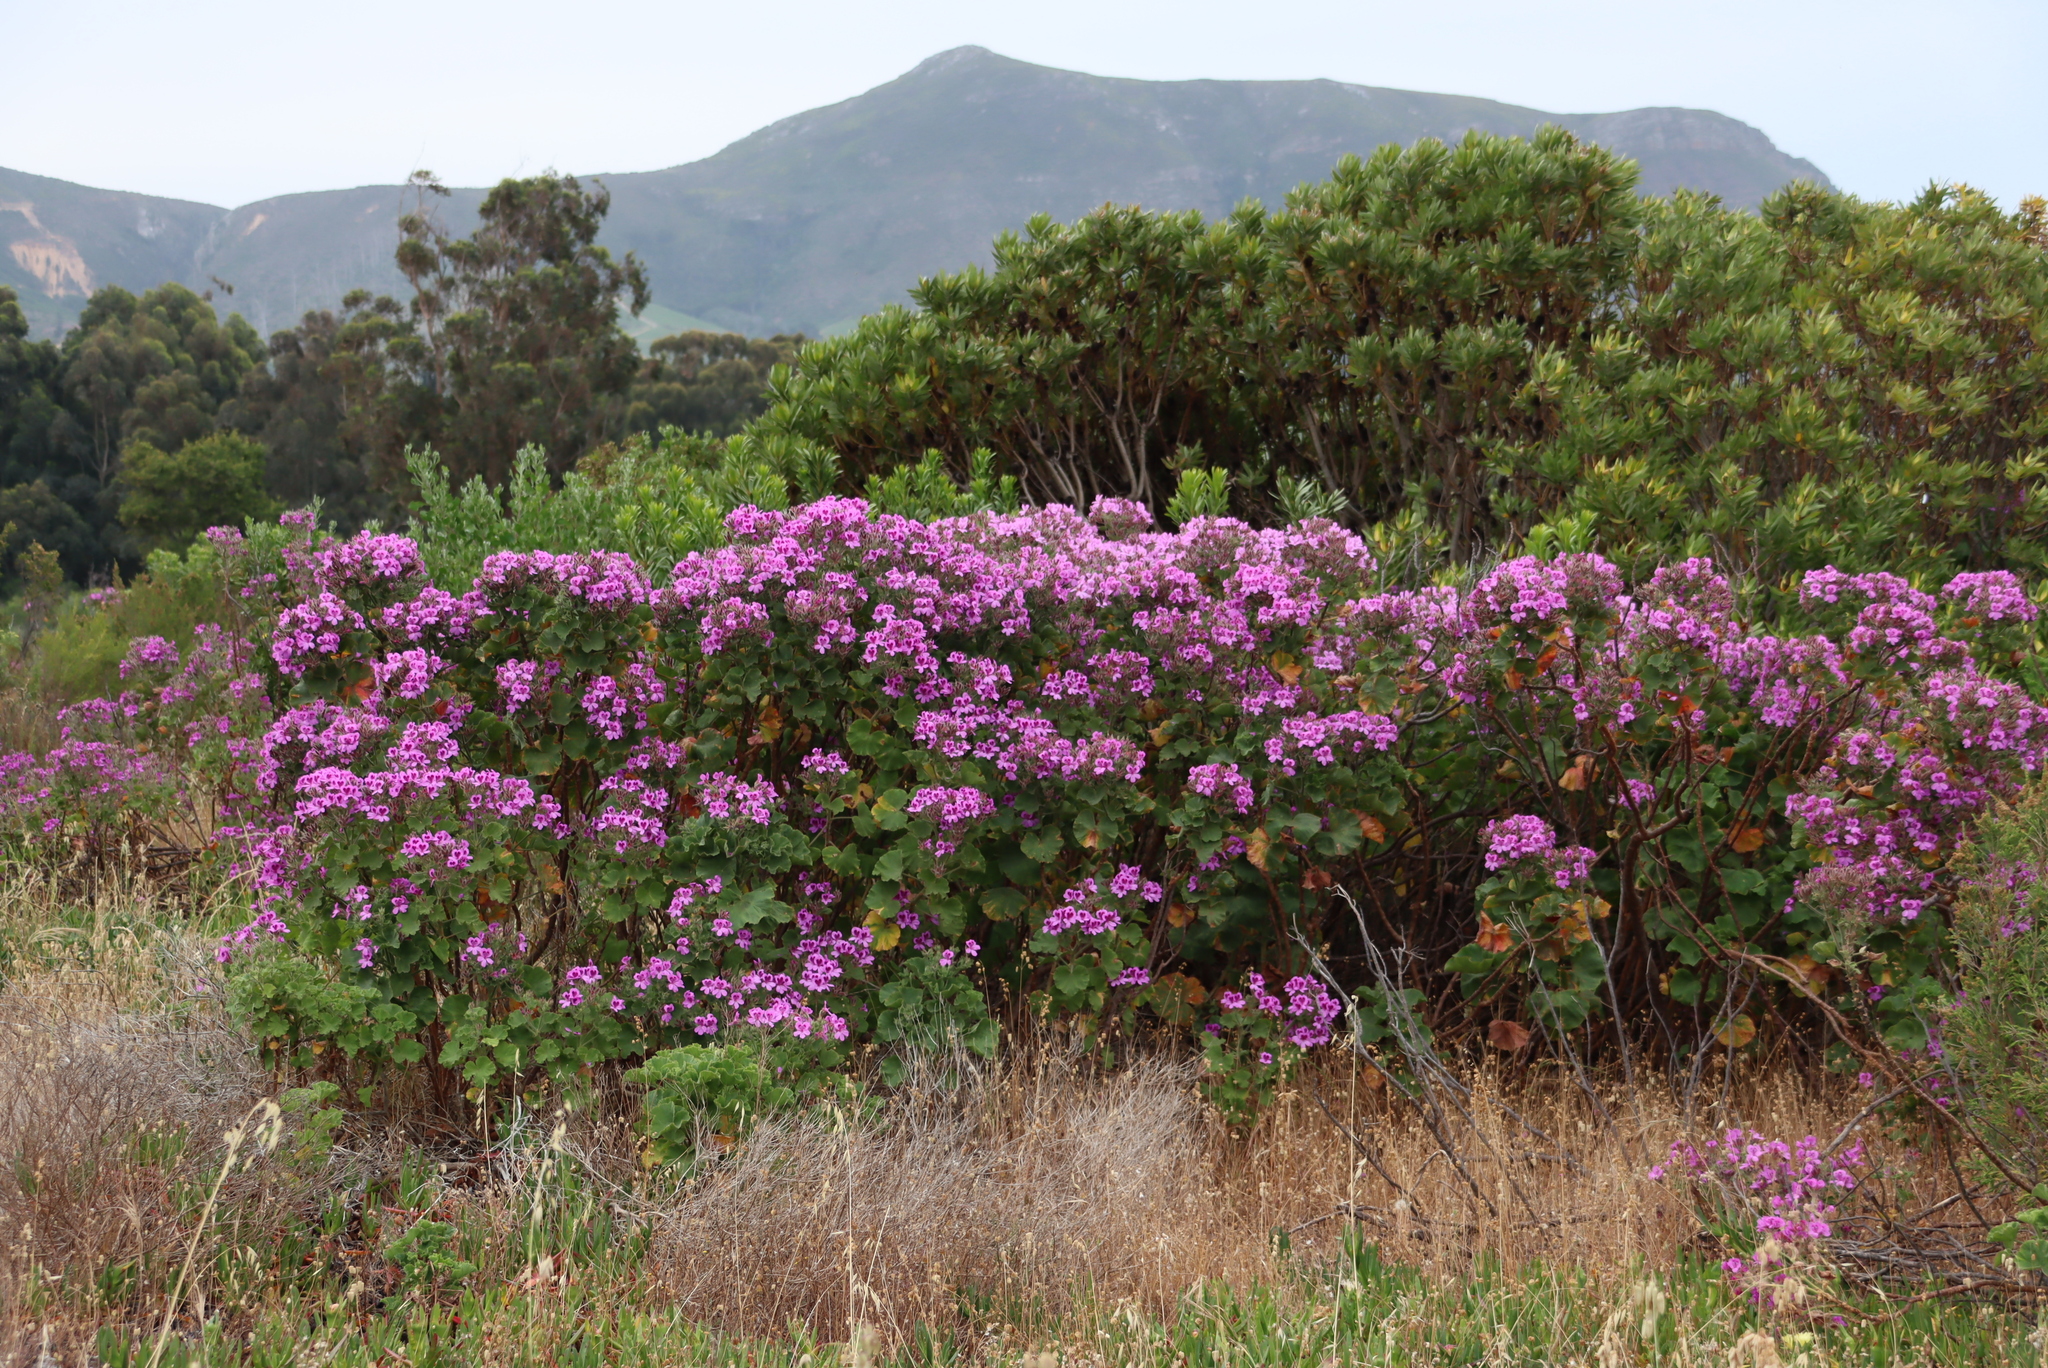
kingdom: Plantae
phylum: Tracheophyta
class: Magnoliopsida
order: Geraniales
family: Geraniaceae
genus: Pelargonium
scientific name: Pelargonium cucullatum
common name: Tree pelargonium
